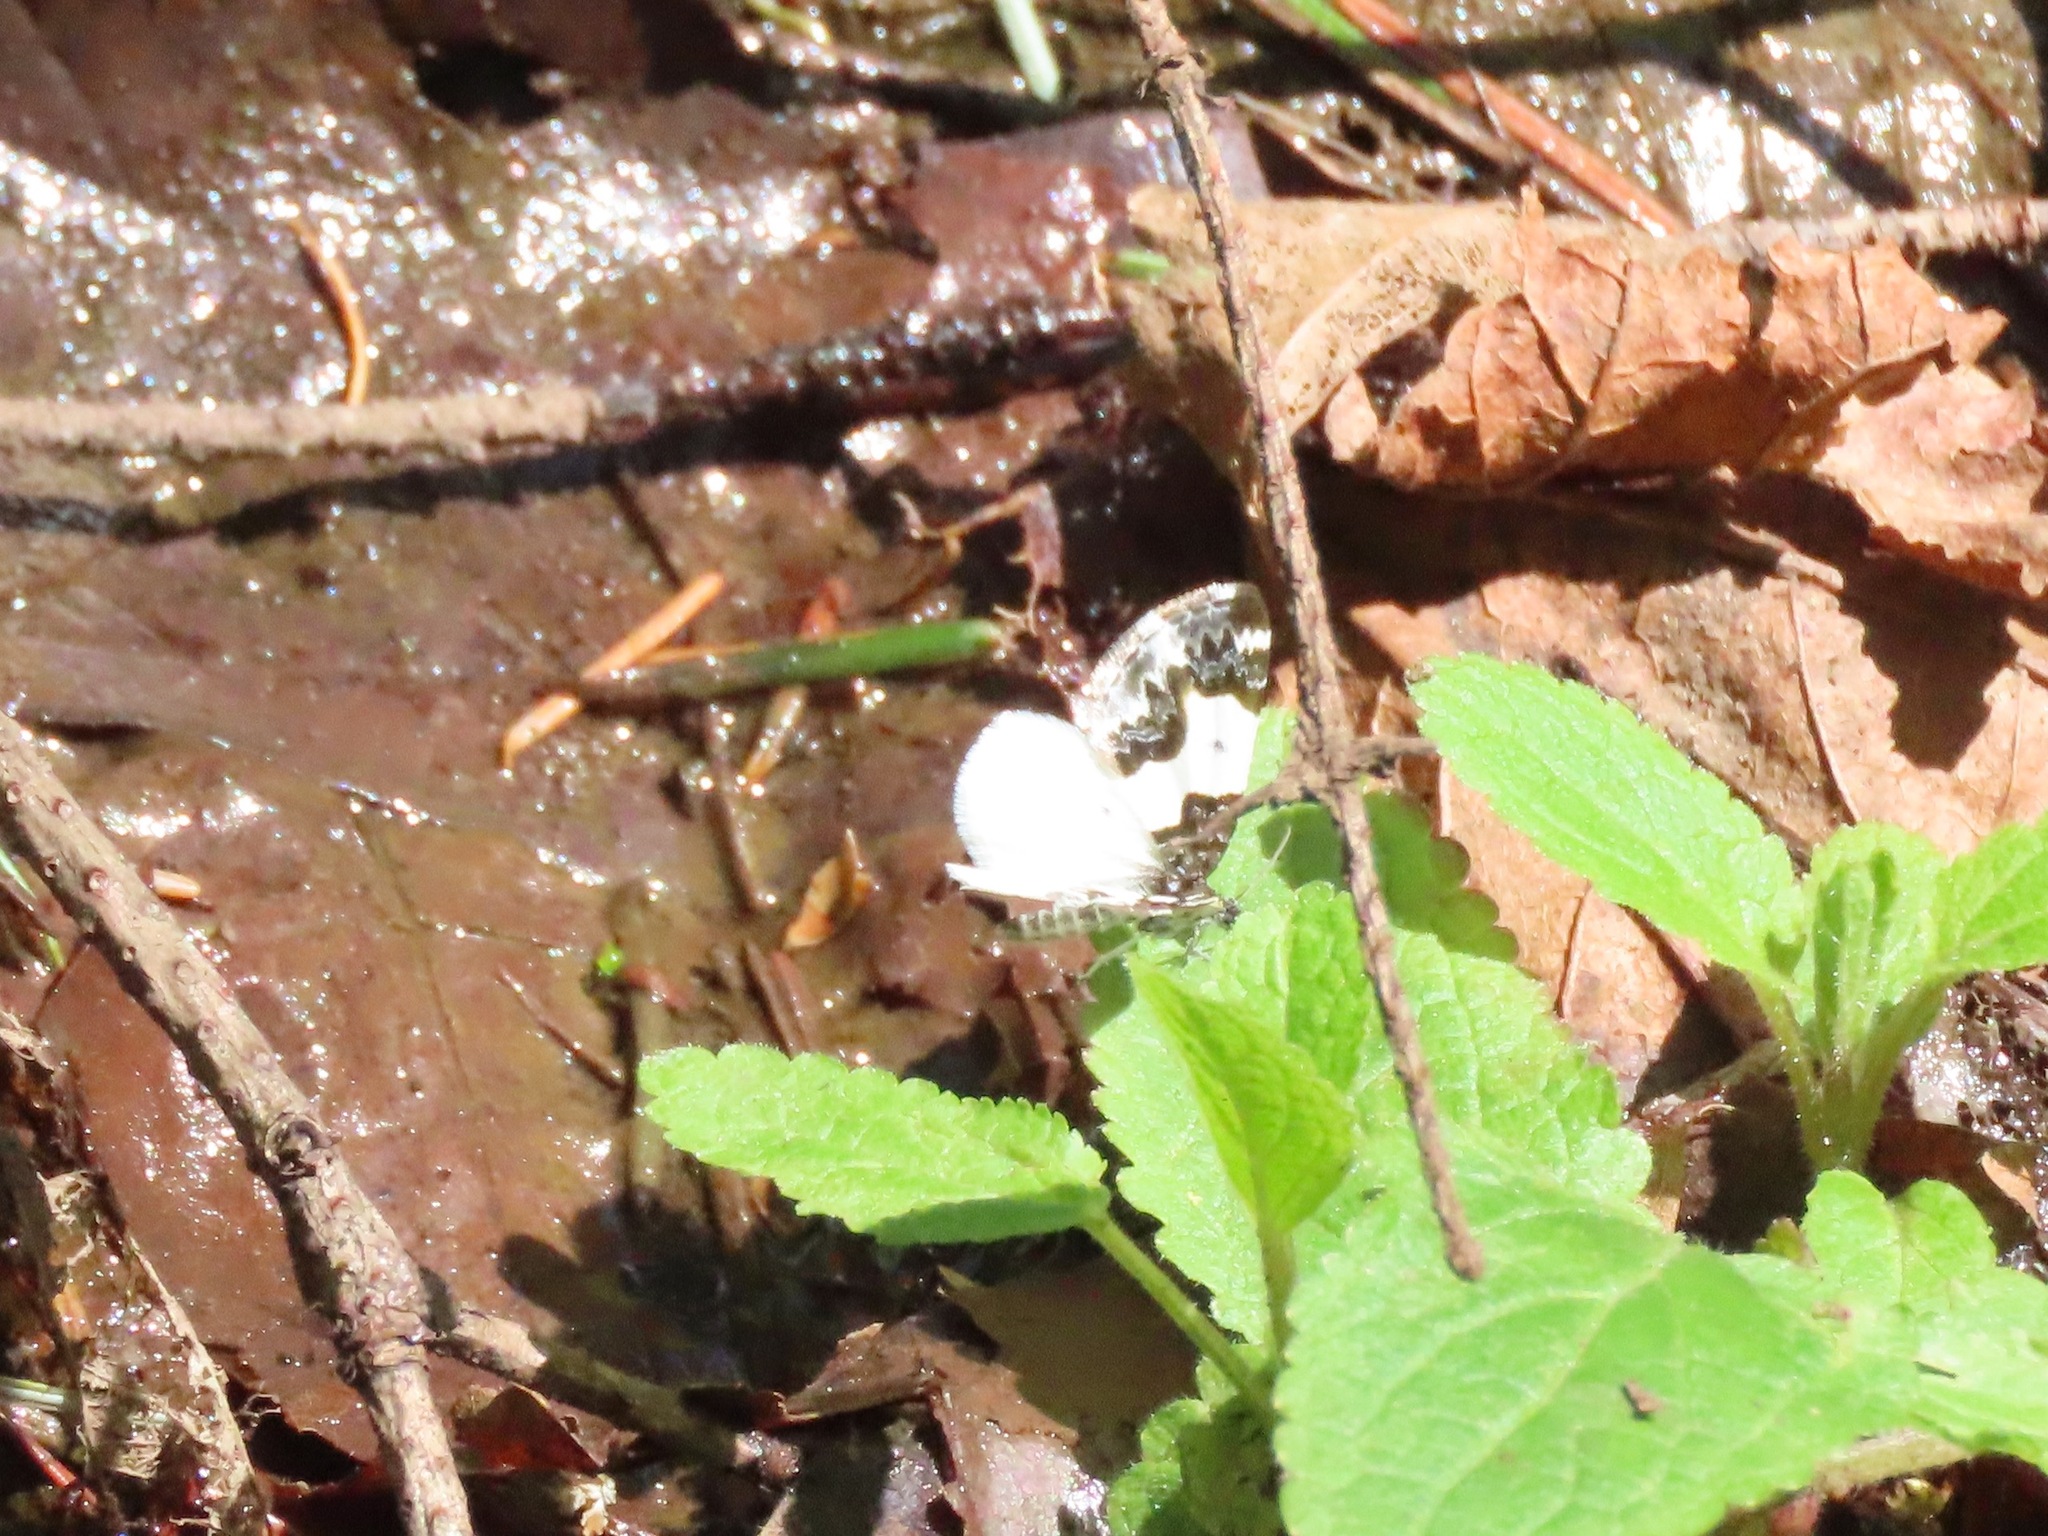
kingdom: Animalia
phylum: Arthropoda
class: Insecta
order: Lepidoptera
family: Geometridae
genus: Mesoleuca
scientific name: Mesoleuca gratulata
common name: Half-white carpet moth
